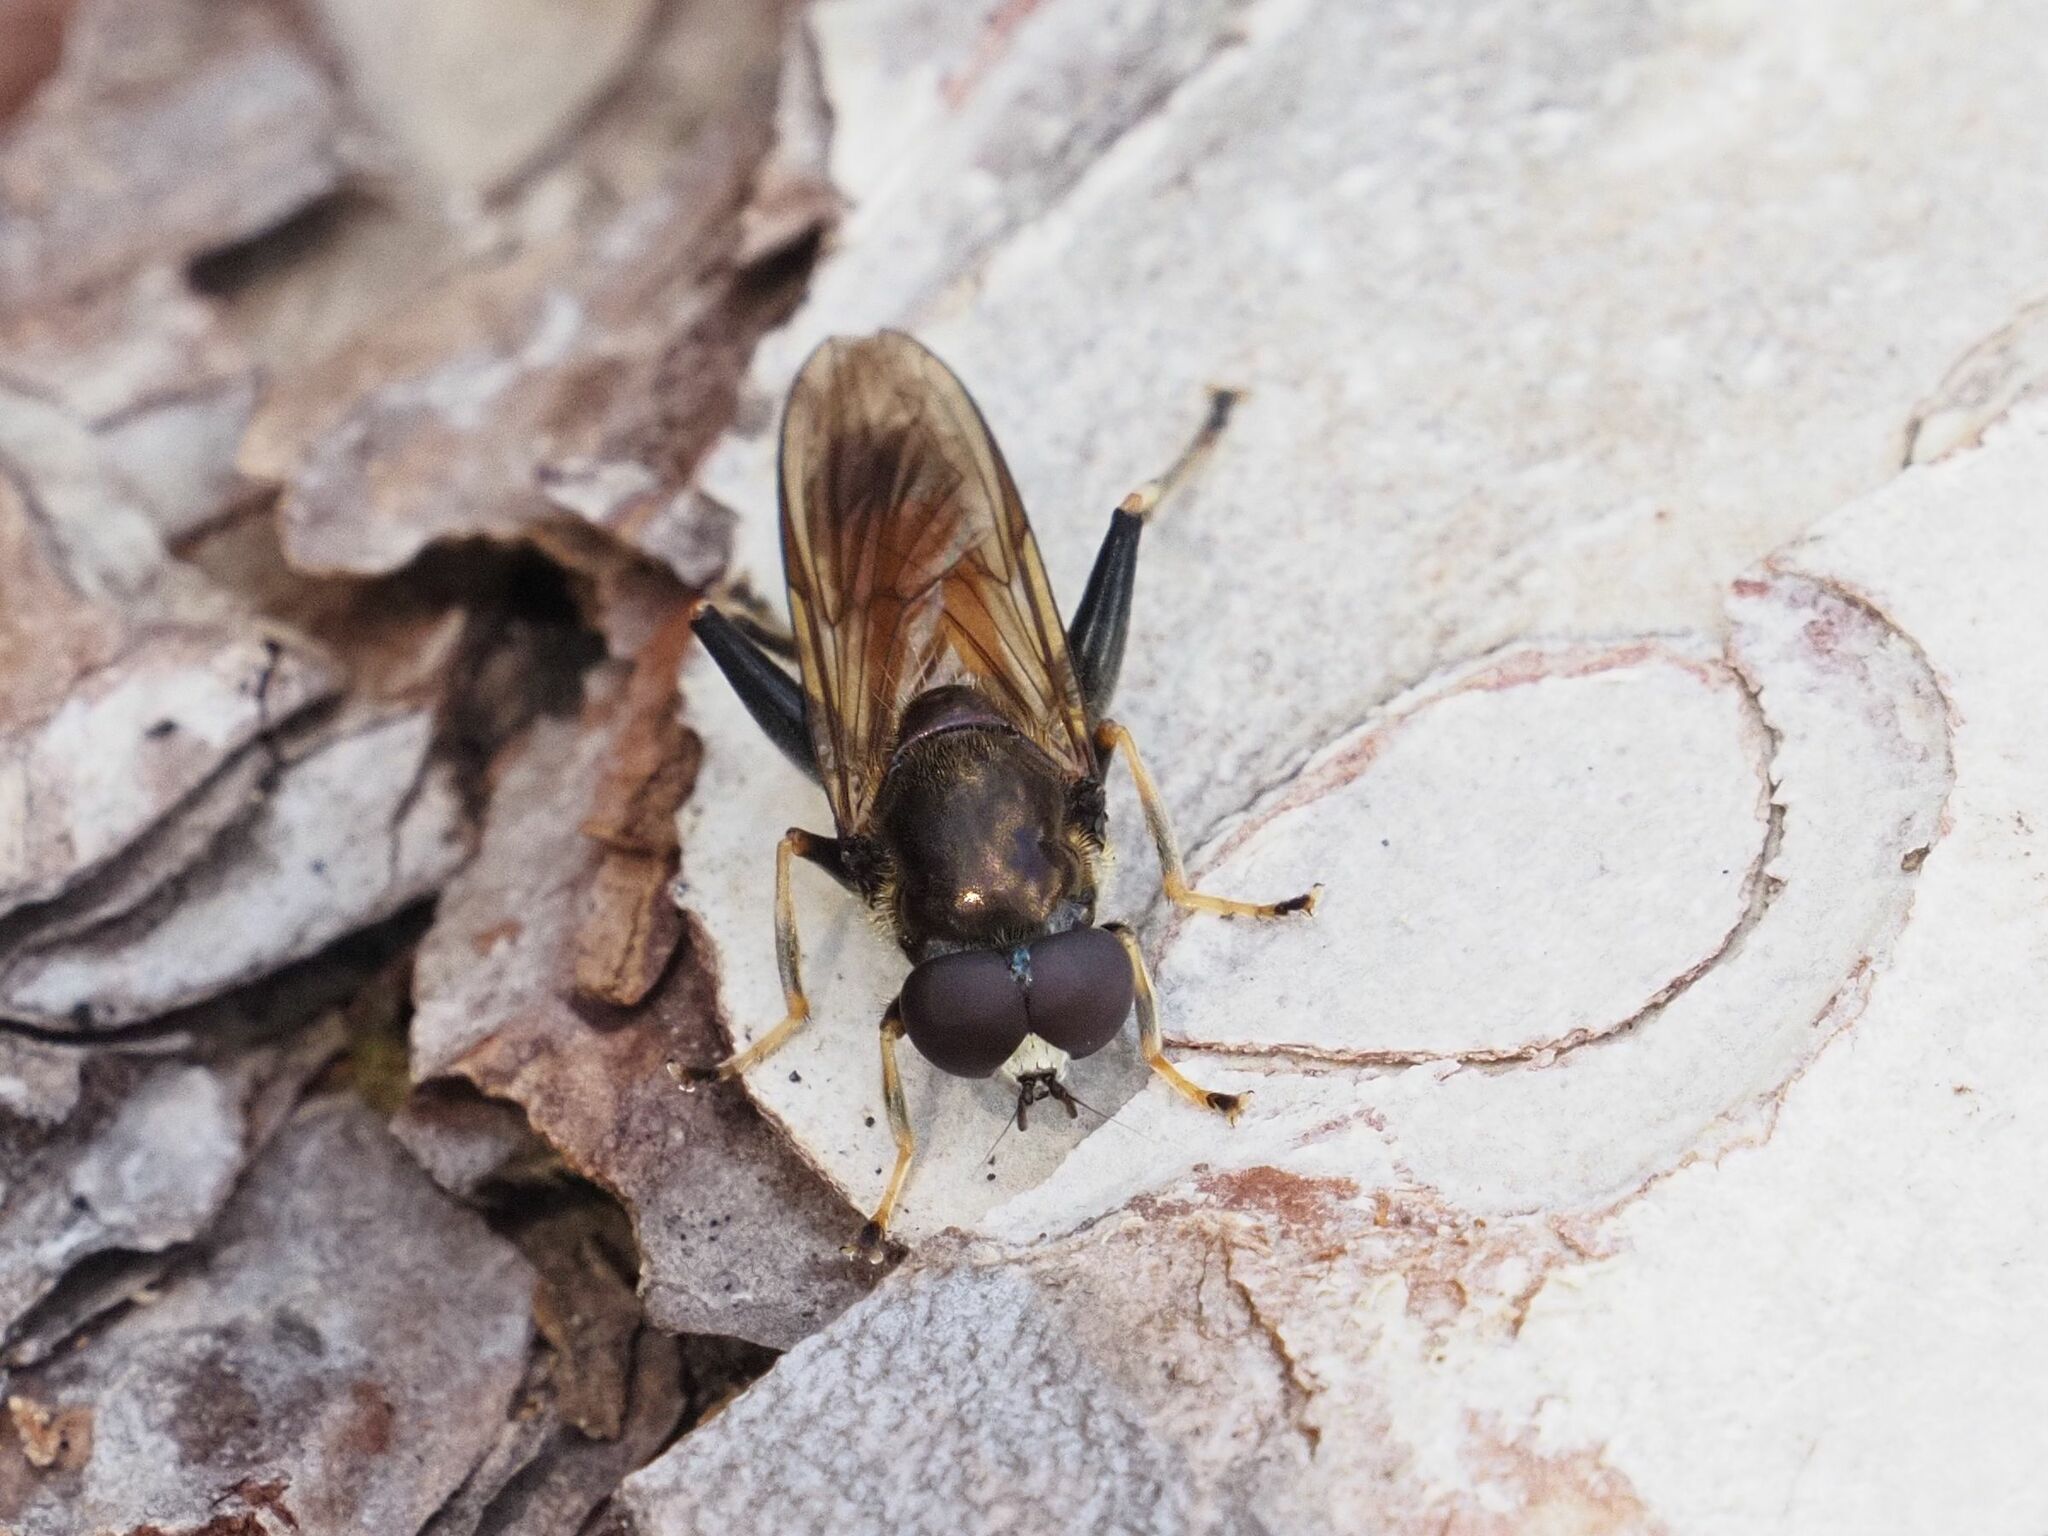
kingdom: Animalia
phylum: Arthropoda
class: Insecta
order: Diptera
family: Syrphidae
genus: Xylota
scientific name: Xylota segnis
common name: Brown-toed forest fly
